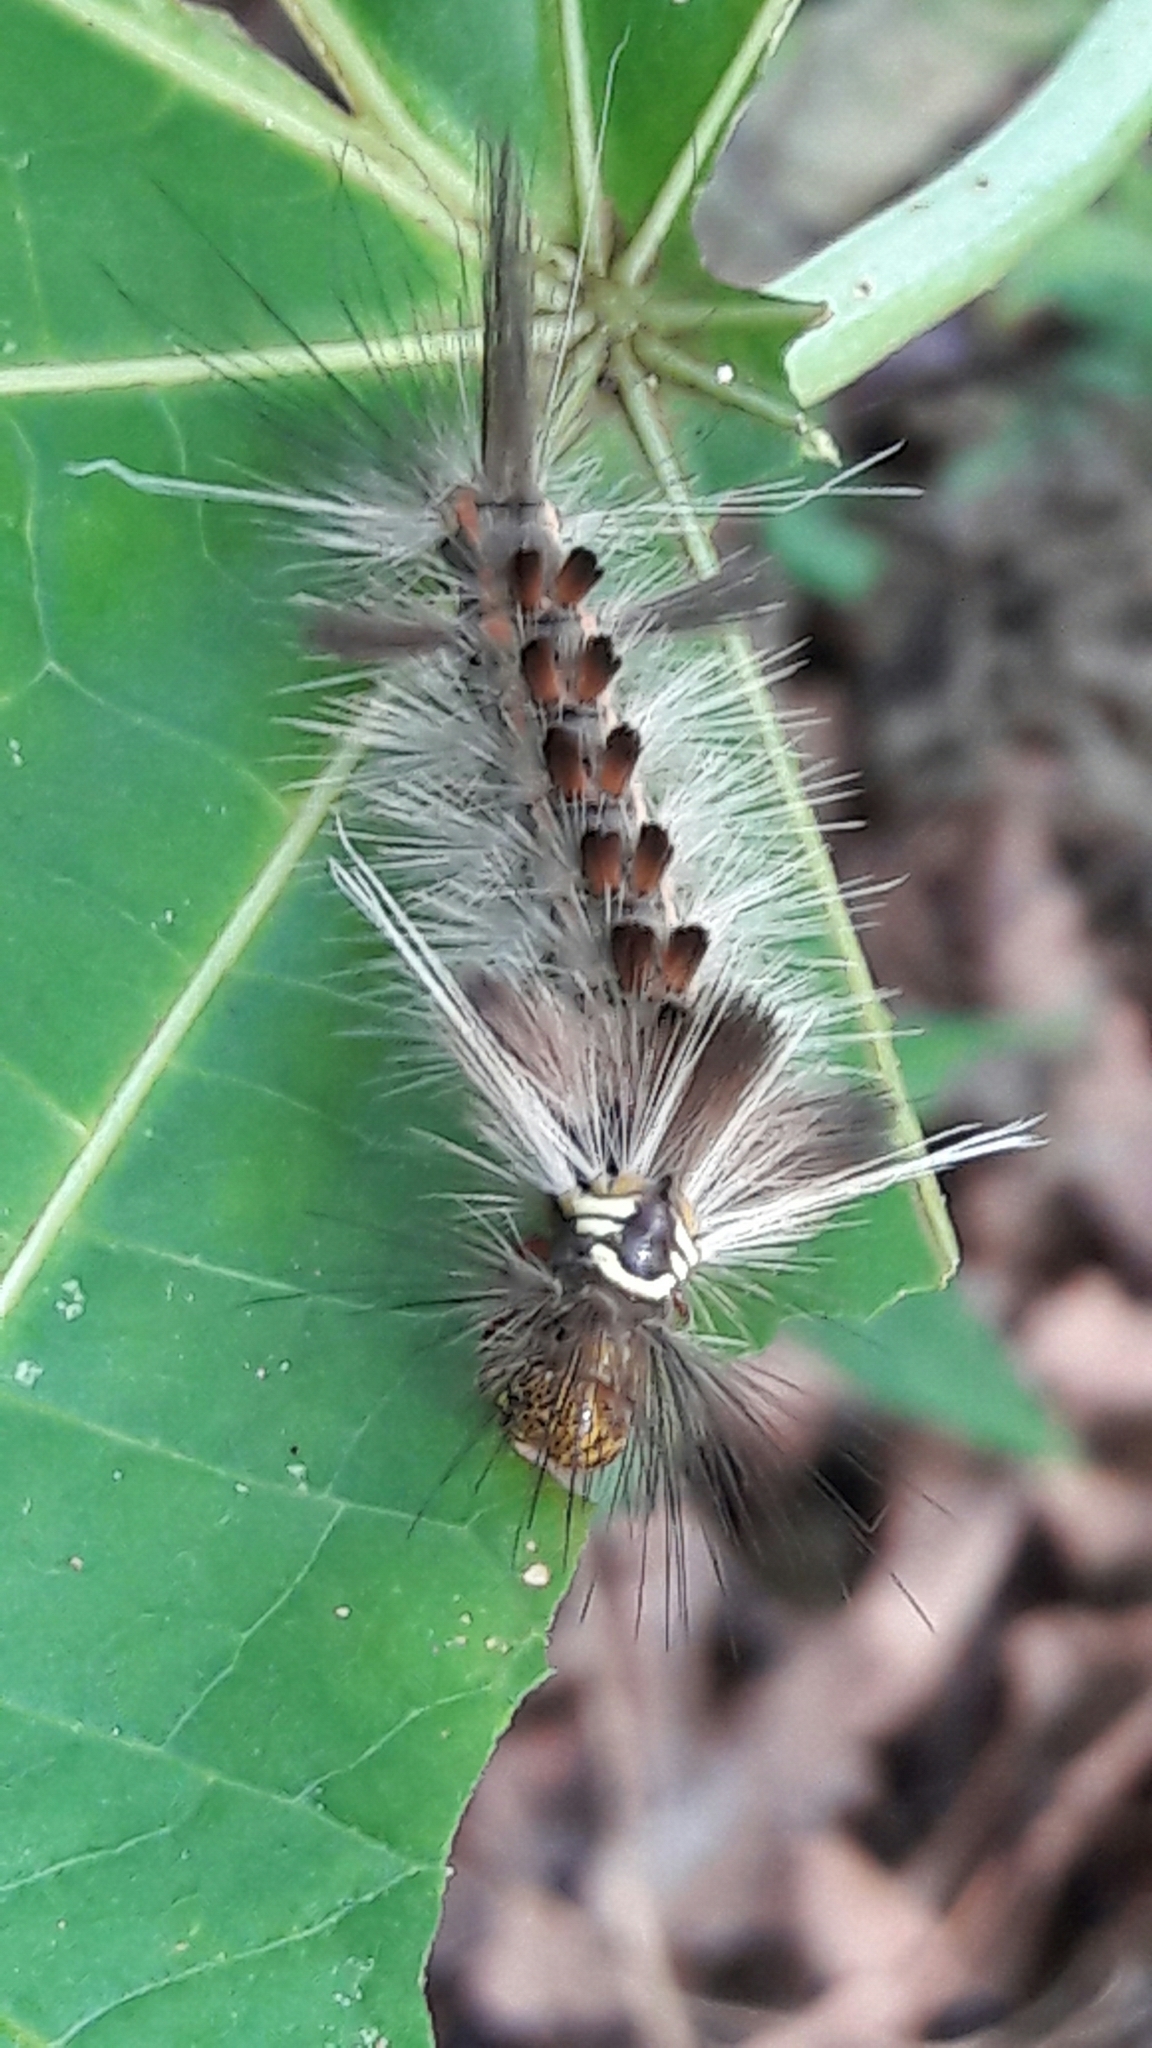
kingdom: Animalia
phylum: Arthropoda
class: Insecta
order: Lepidoptera
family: Erebidae
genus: Carales
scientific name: Carales astur
